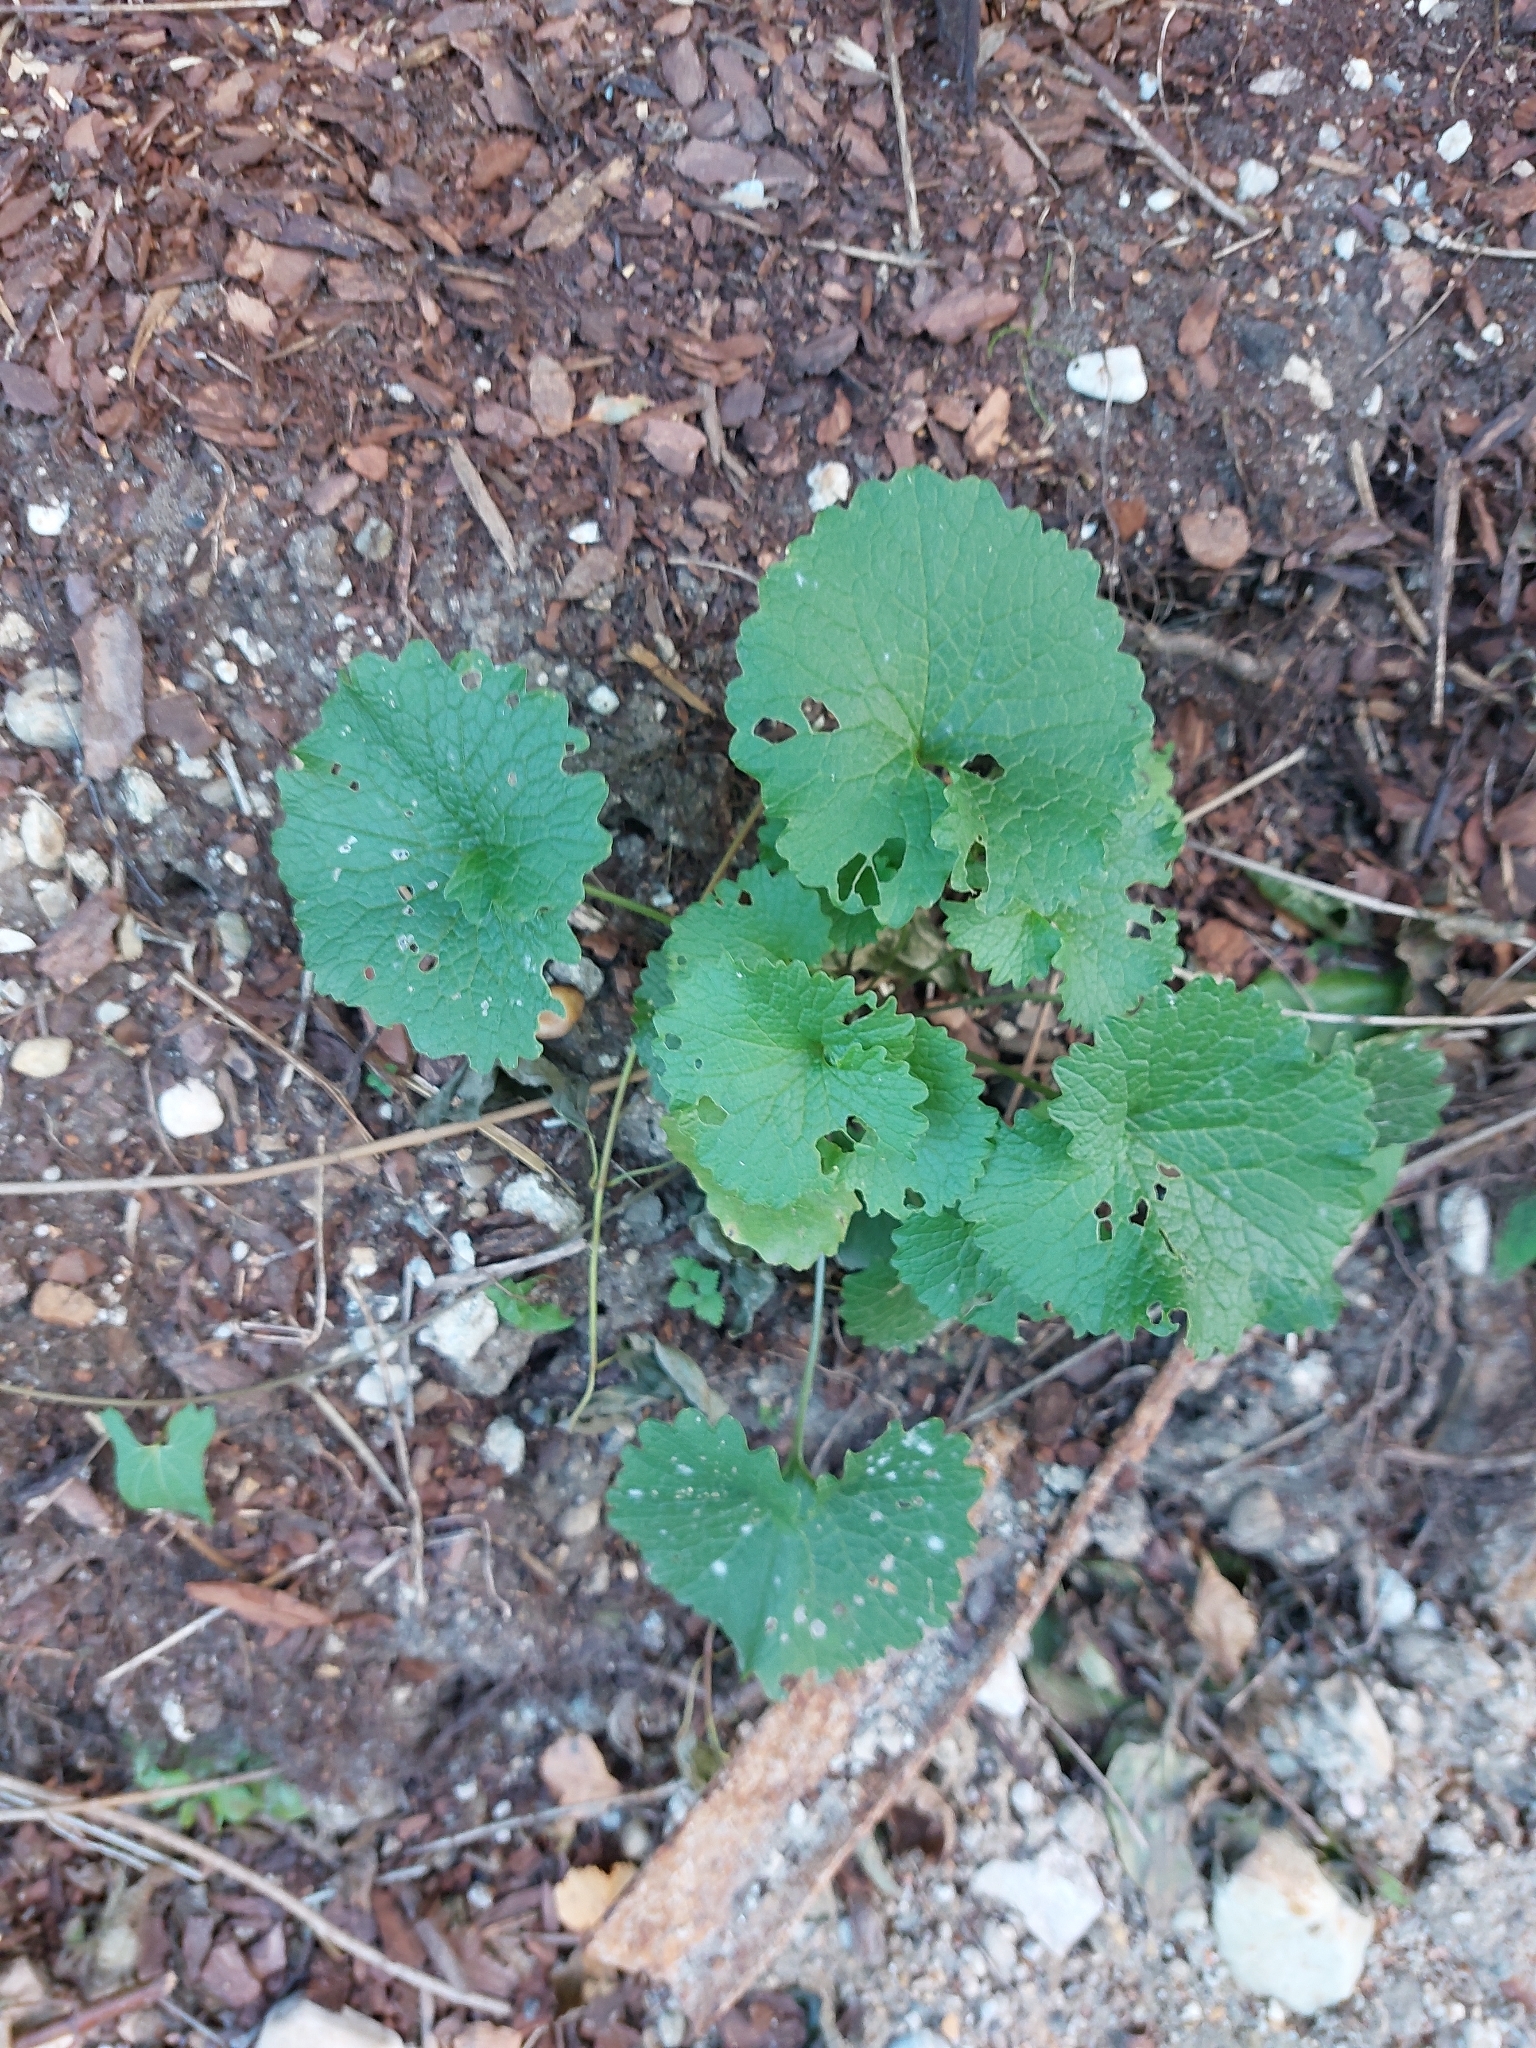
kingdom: Plantae
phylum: Tracheophyta
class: Magnoliopsida
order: Brassicales
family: Brassicaceae
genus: Alliaria
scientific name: Alliaria petiolata
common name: Garlic mustard
